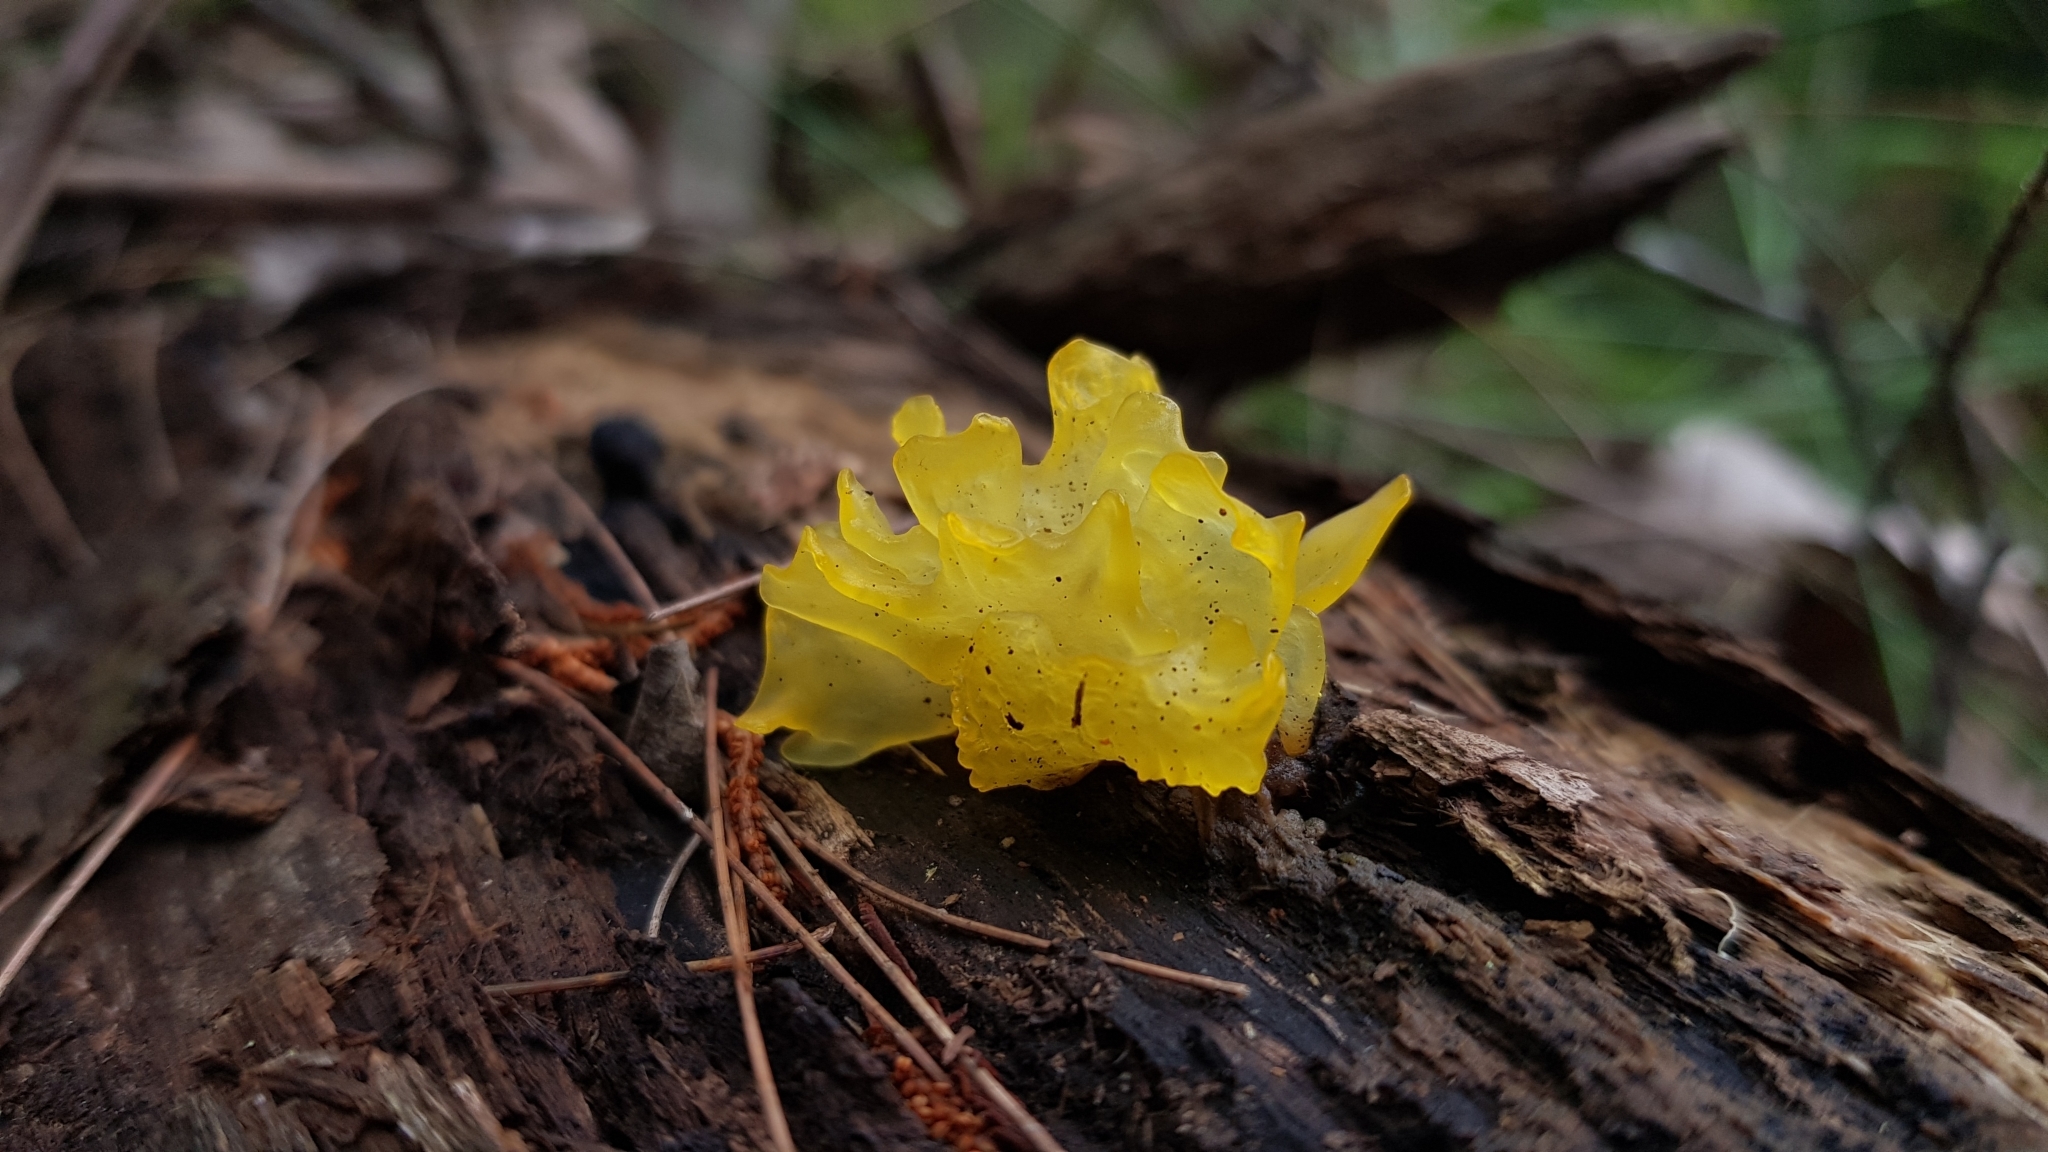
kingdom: Fungi
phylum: Basidiomycota
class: Tremellomycetes
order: Tremellales
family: Tremellaceae
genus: Tremella
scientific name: Tremella mesenterica
